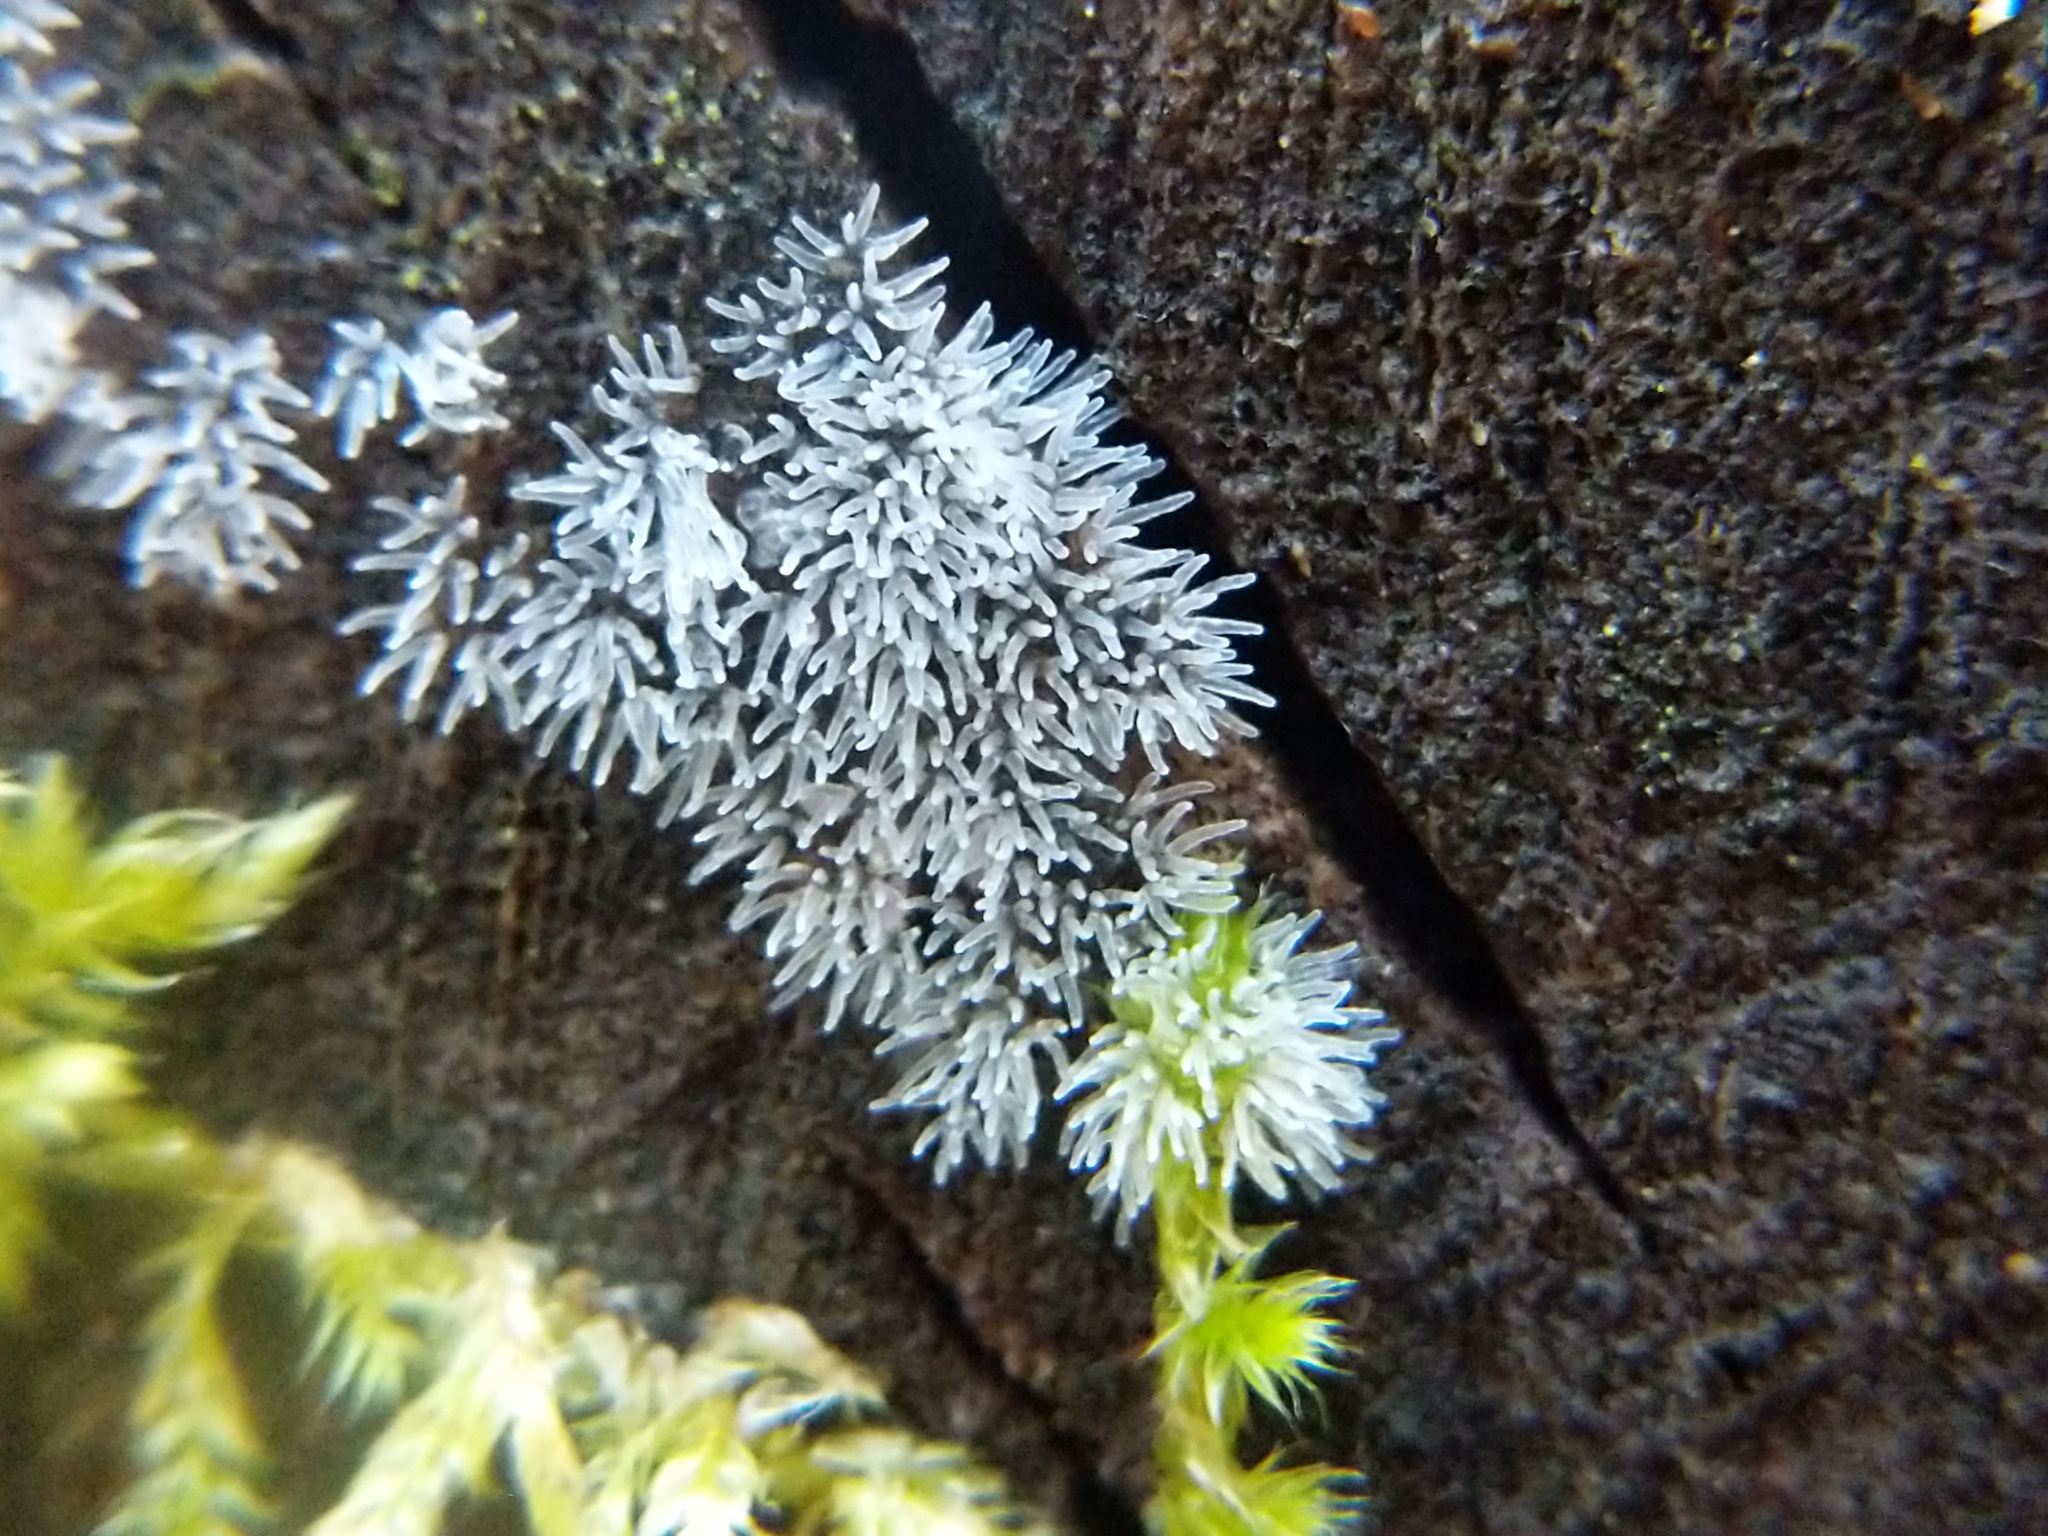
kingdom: Protozoa
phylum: Mycetozoa
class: Protosteliomycetes
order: Ceratiomyxales
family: Ceratiomyxaceae
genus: Ceratiomyxa
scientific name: Ceratiomyxa fruticulosa
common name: Honeycomb coral slime mold
